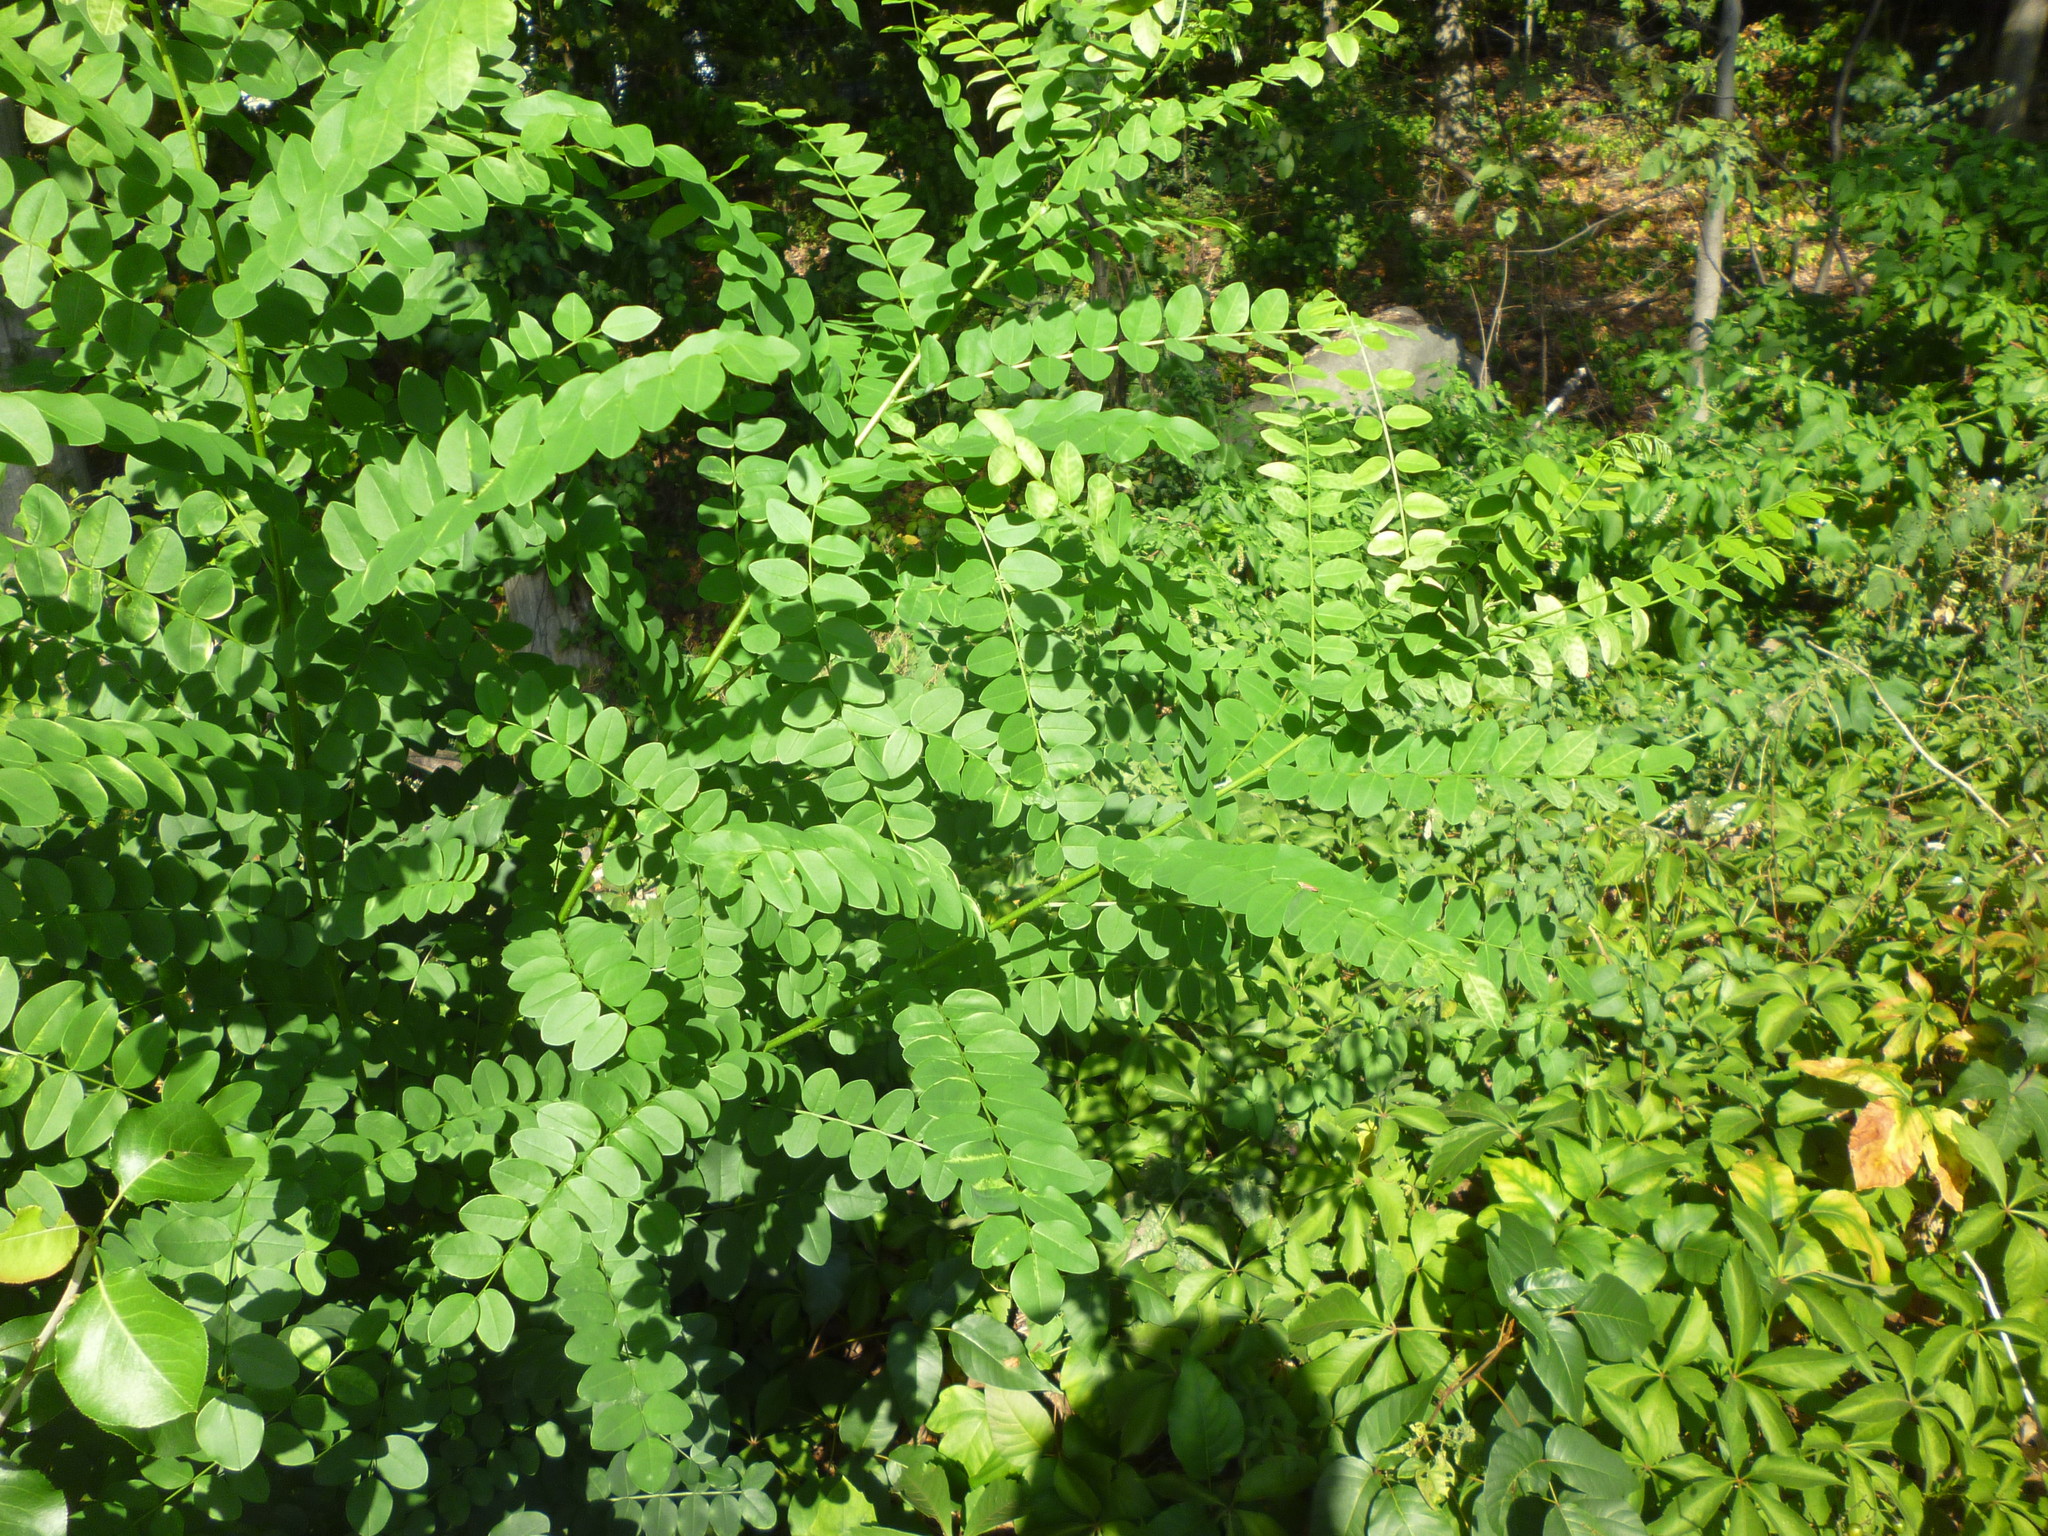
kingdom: Plantae
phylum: Tracheophyta
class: Magnoliopsida
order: Fabales
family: Fabaceae
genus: Amorpha
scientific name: Amorpha fruticosa
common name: False indigo
